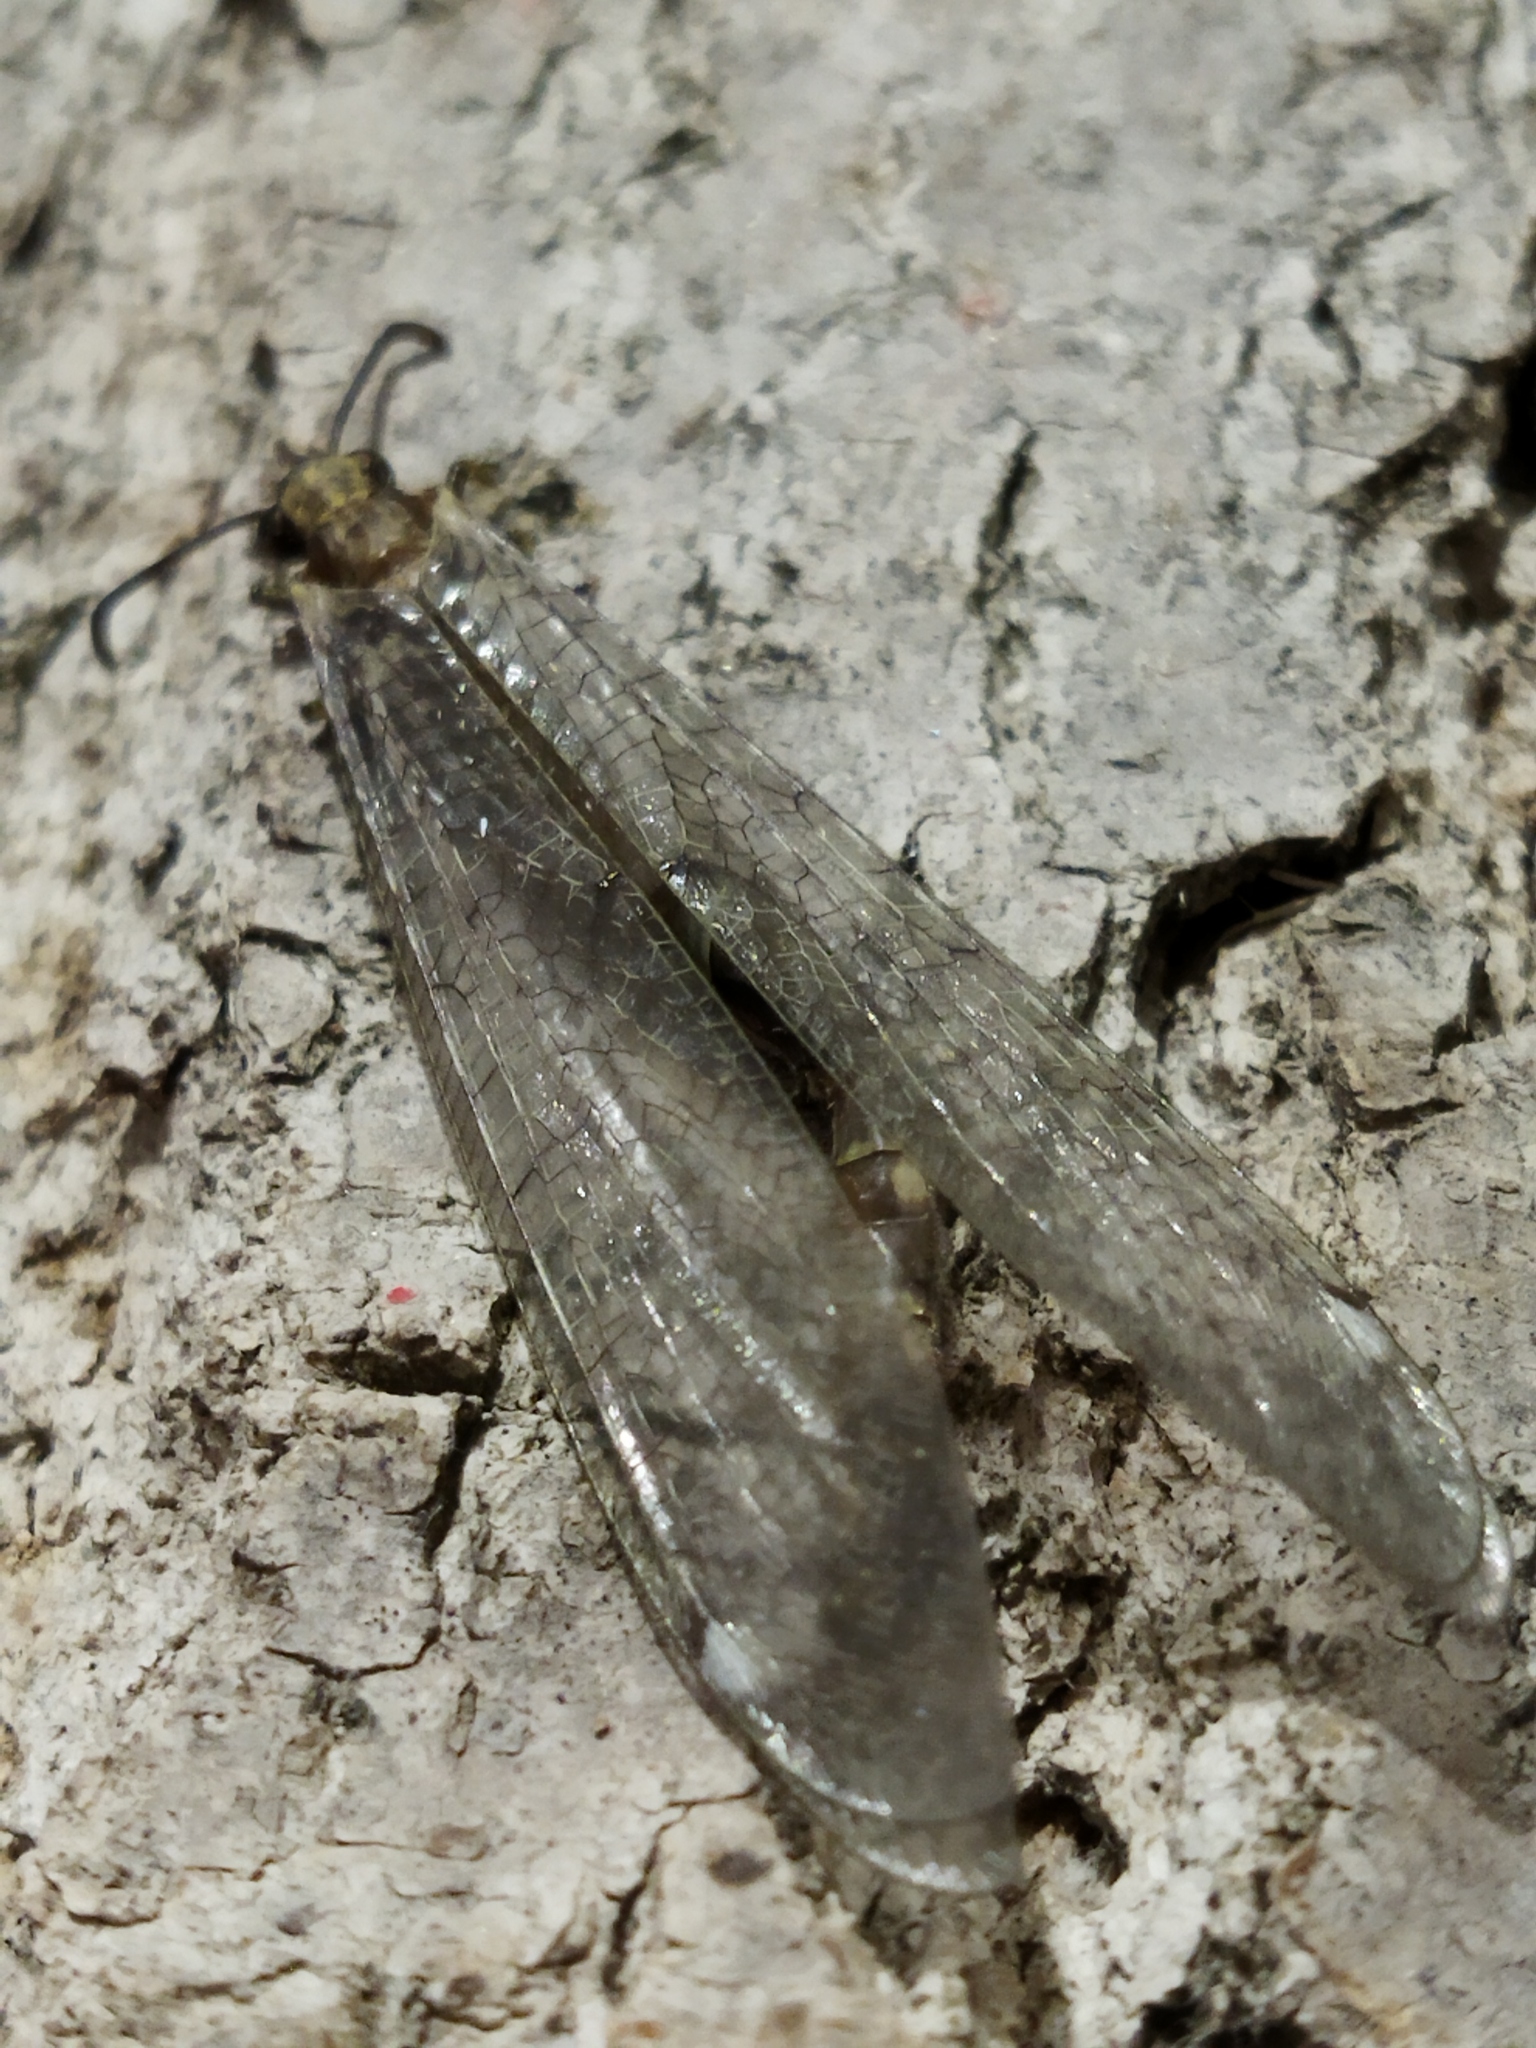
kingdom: Animalia
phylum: Arthropoda
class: Insecta
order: Neuroptera
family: Myrmeleontidae
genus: Distoleon
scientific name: Distoleon tetragrammicus
